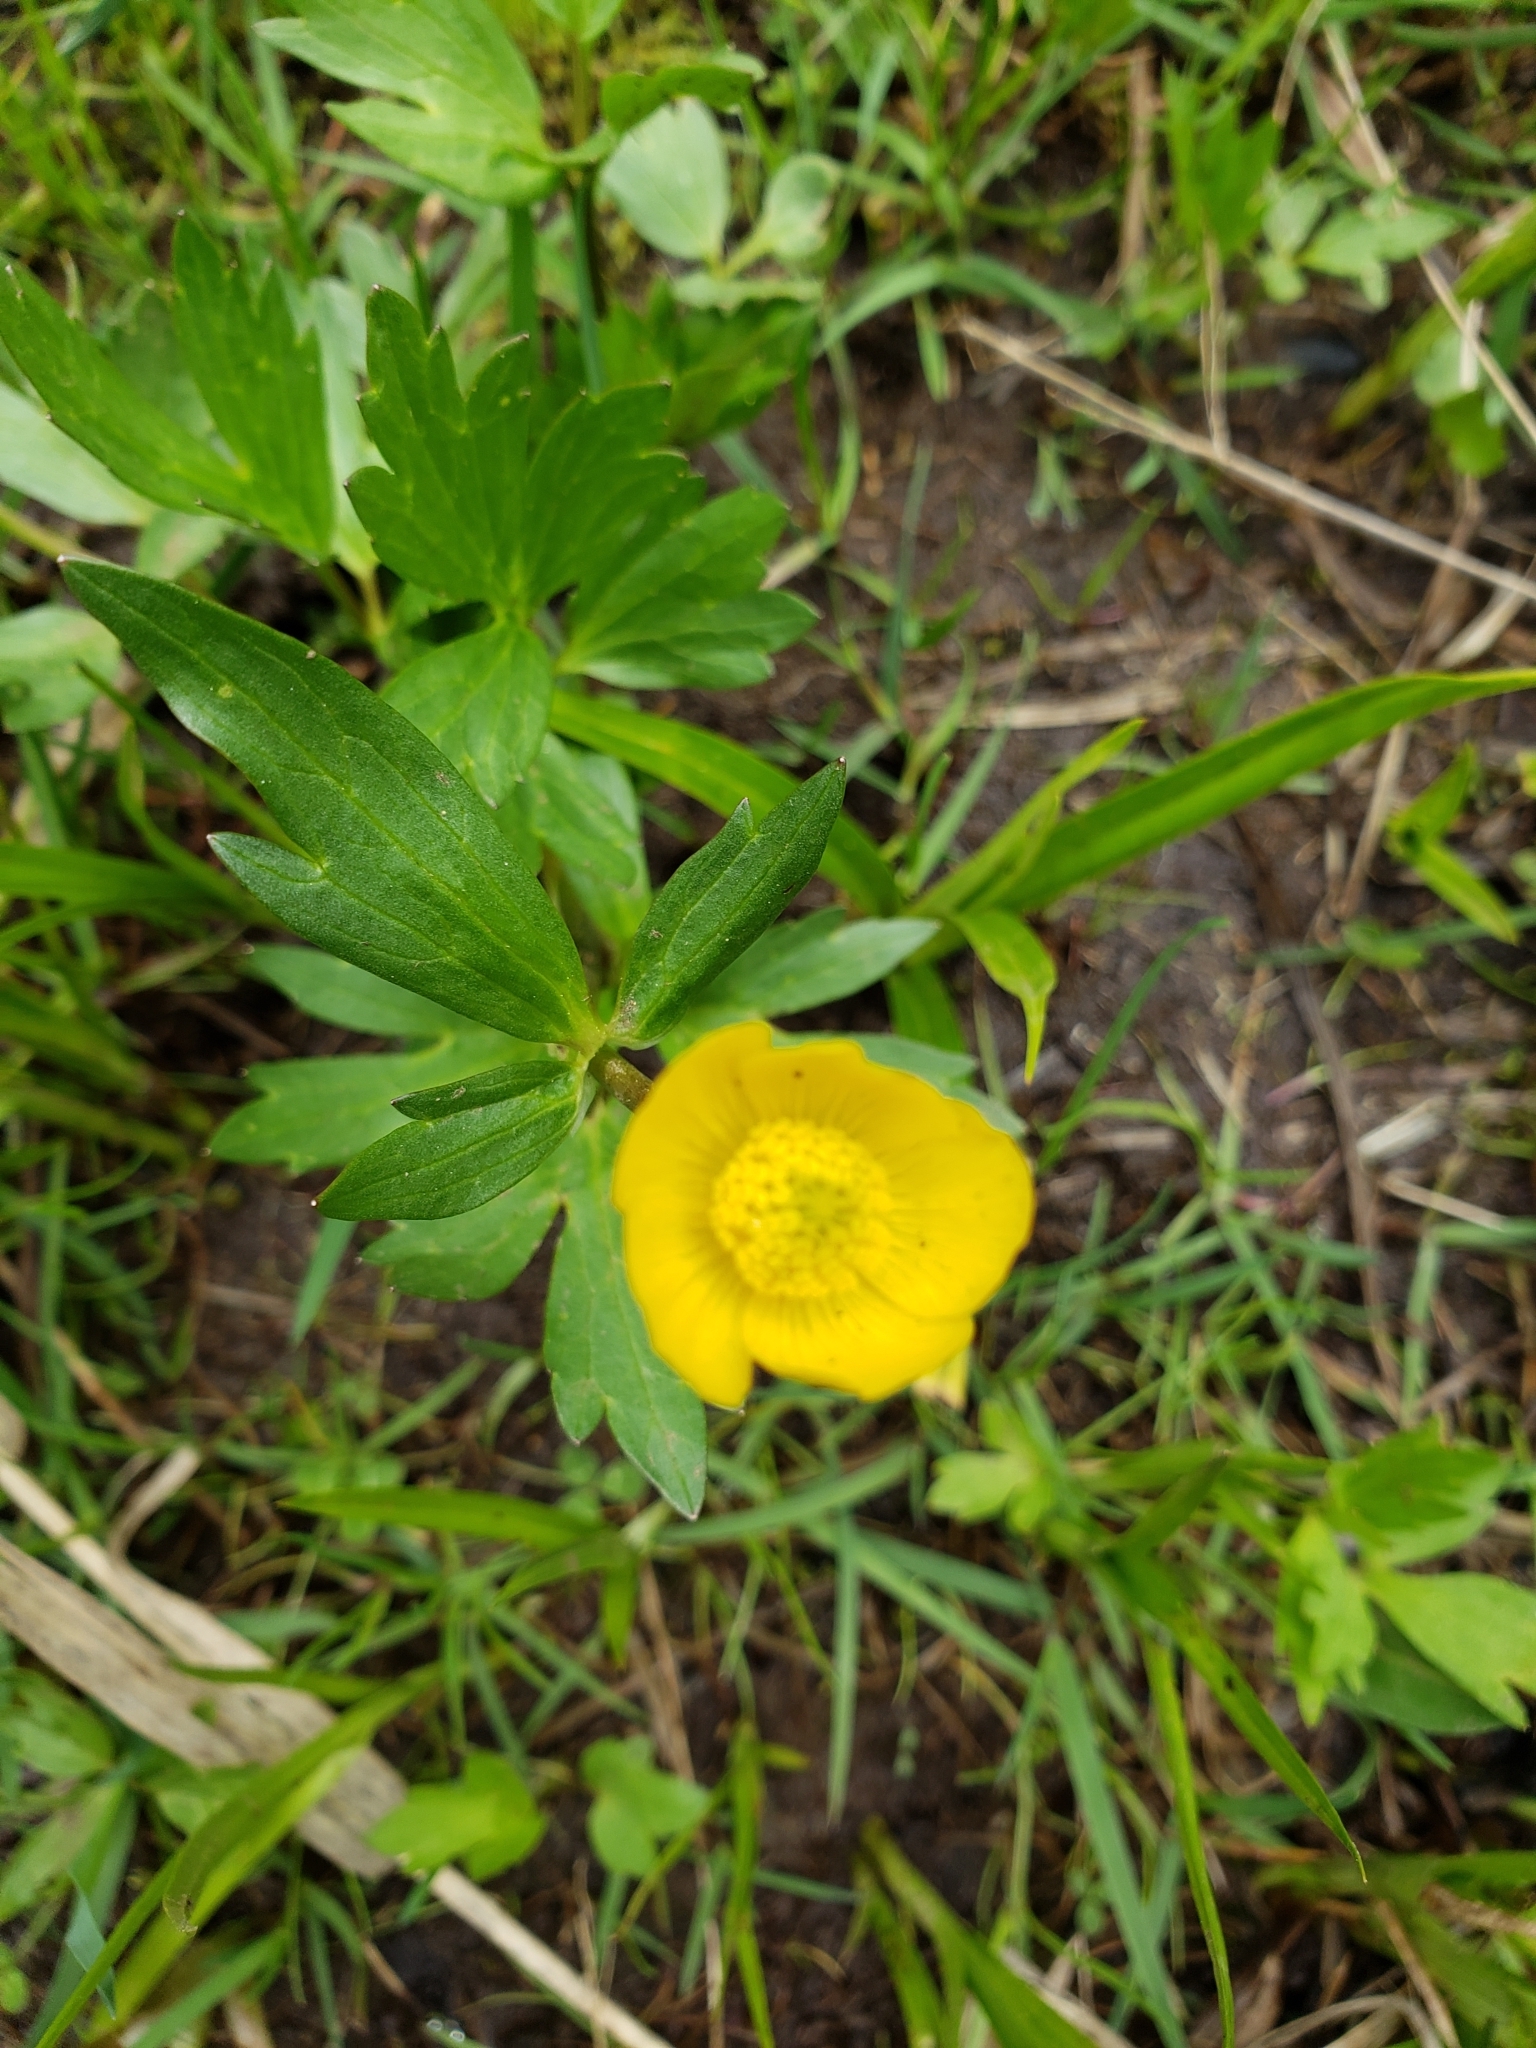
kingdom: Plantae
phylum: Tracheophyta
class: Magnoliopsida
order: Ranunculales
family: Ranunculaceae
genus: Ranunculus
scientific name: Ranunculus orthorhynchus
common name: Straight-beak buttercup
